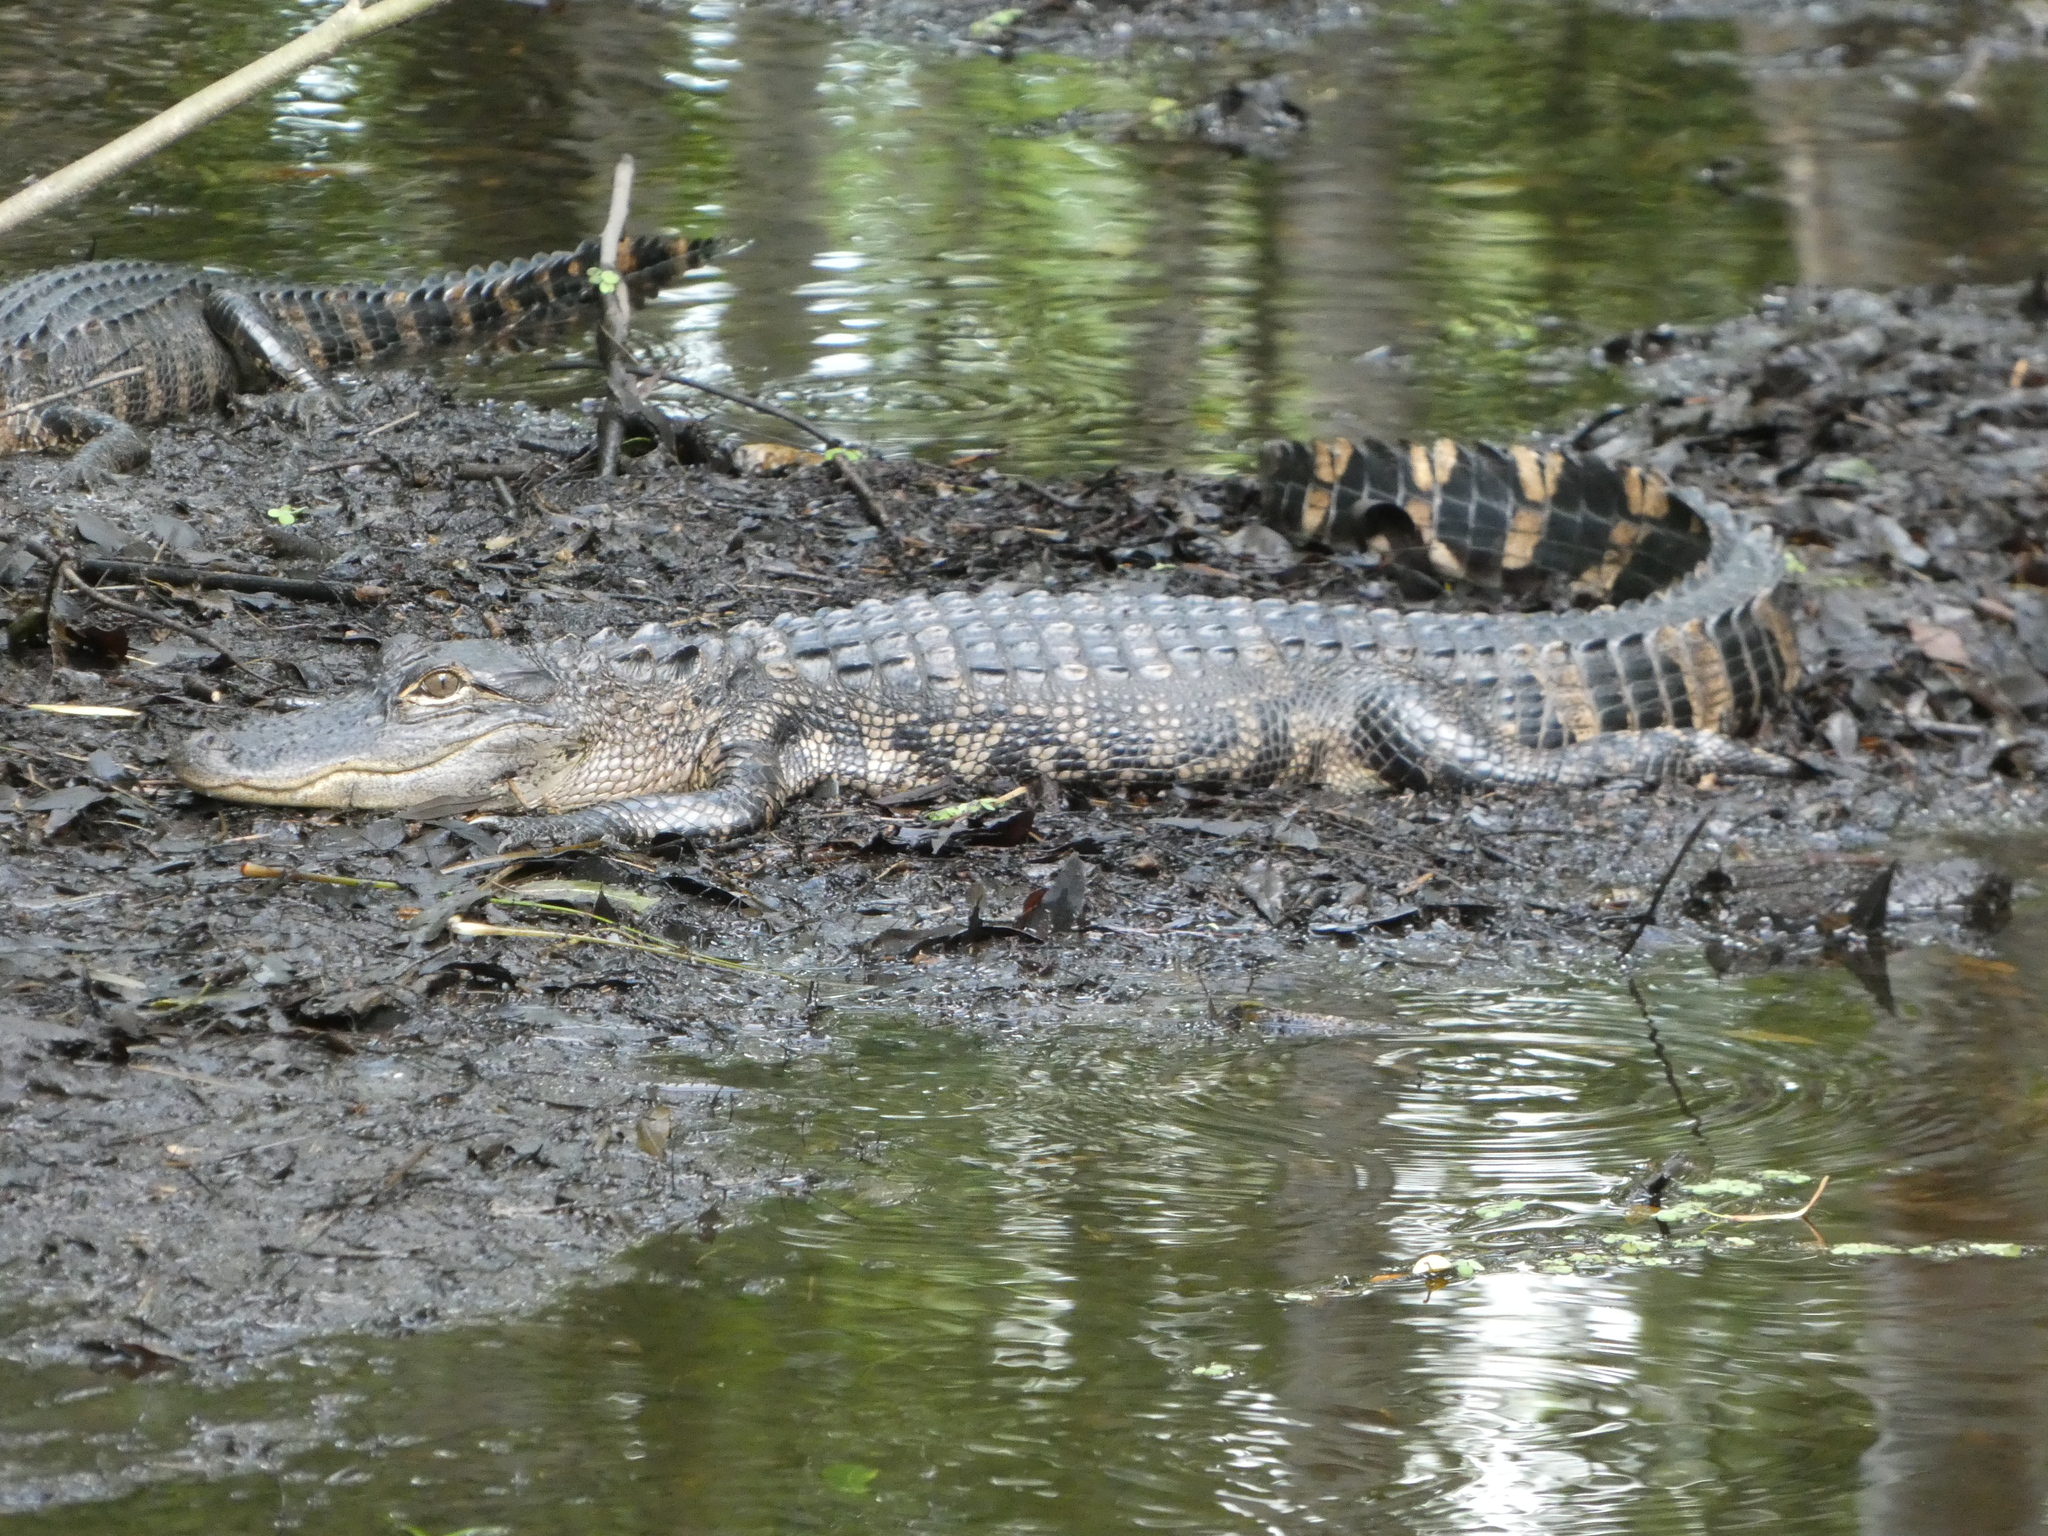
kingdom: Animalia
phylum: Chordata
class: Crocodylia
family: Alligatoridae
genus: Alligator
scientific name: Alligator mississippiensis
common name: American alligator
